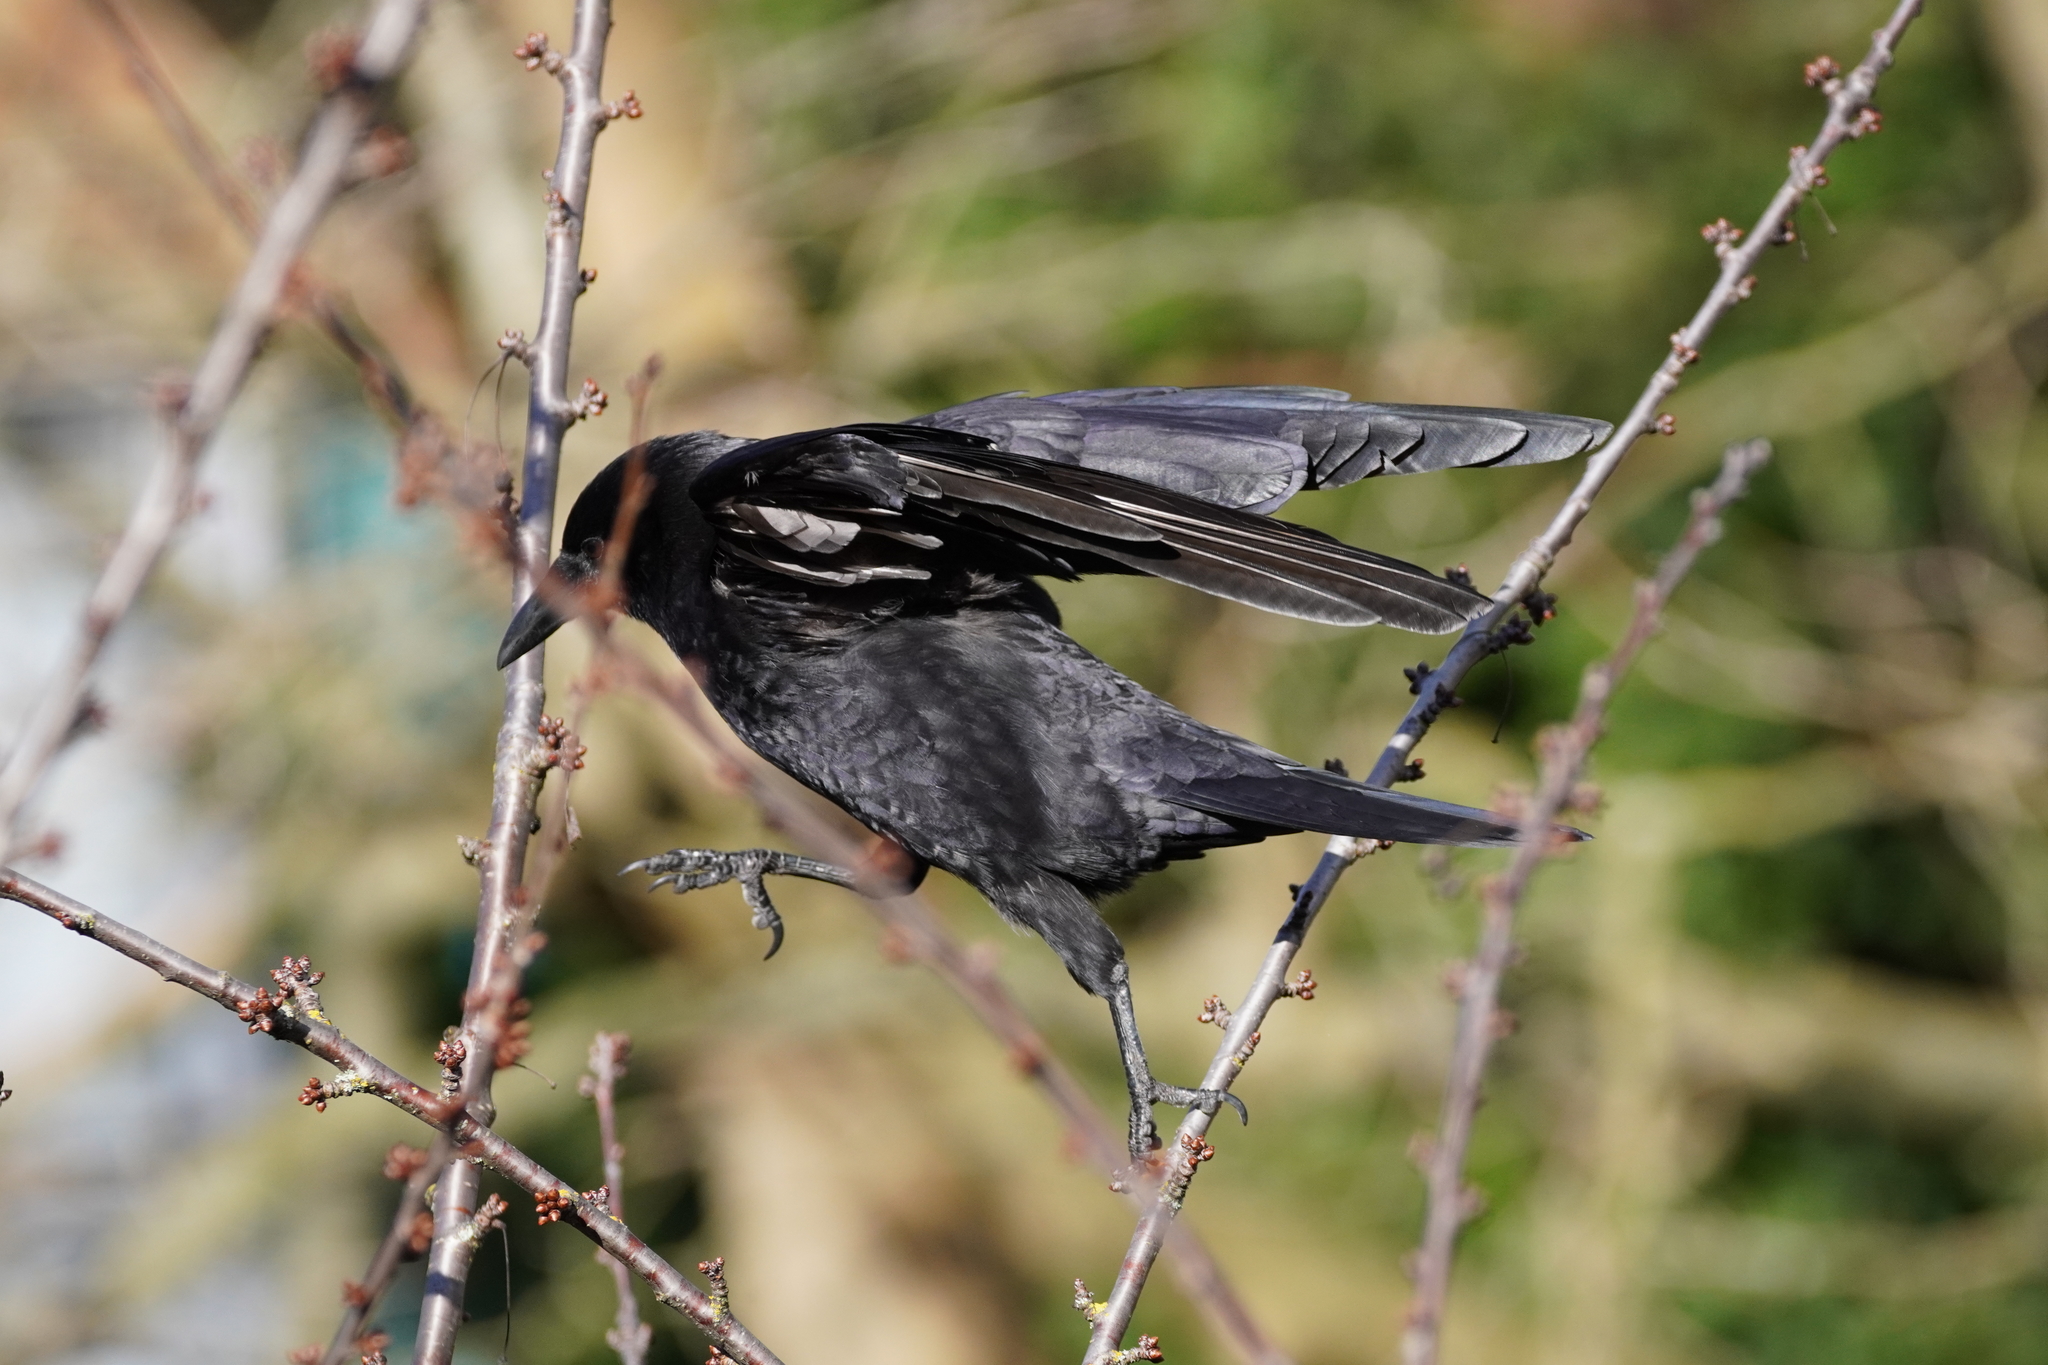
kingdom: Animalia
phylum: Chordata
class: Aves
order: Passeriformes
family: Corvidae
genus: Corvus
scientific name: Corvus brachyrhynchos
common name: American crow
